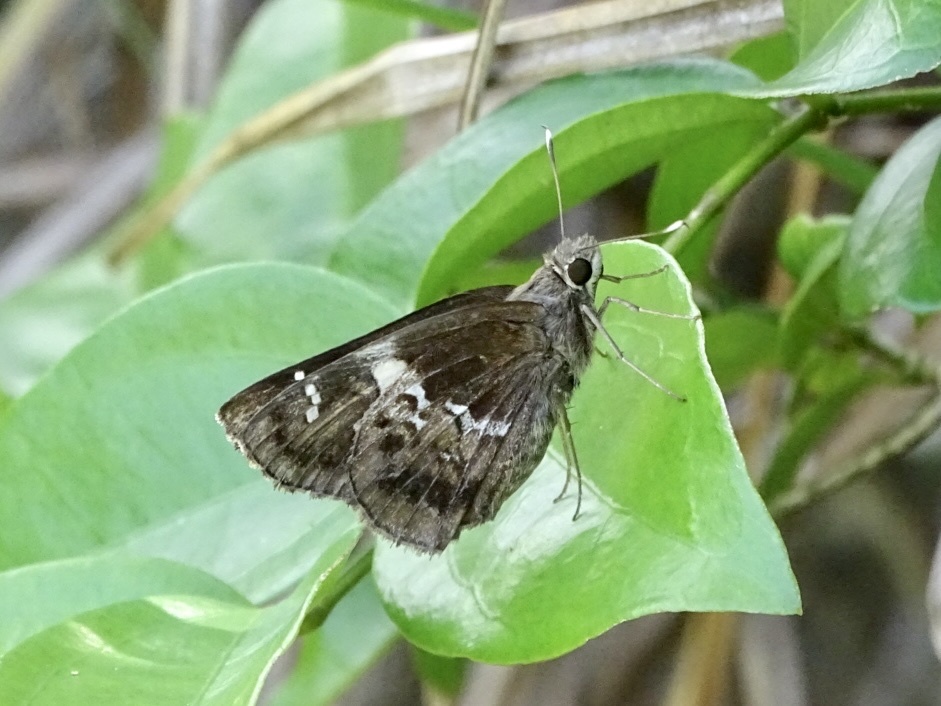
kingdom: Animalia
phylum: Arthropoda
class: Insecta
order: Lepidoptera
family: Hesperiidae
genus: Hyarotis
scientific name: Hyarotis adrastus
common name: Tree flitter
